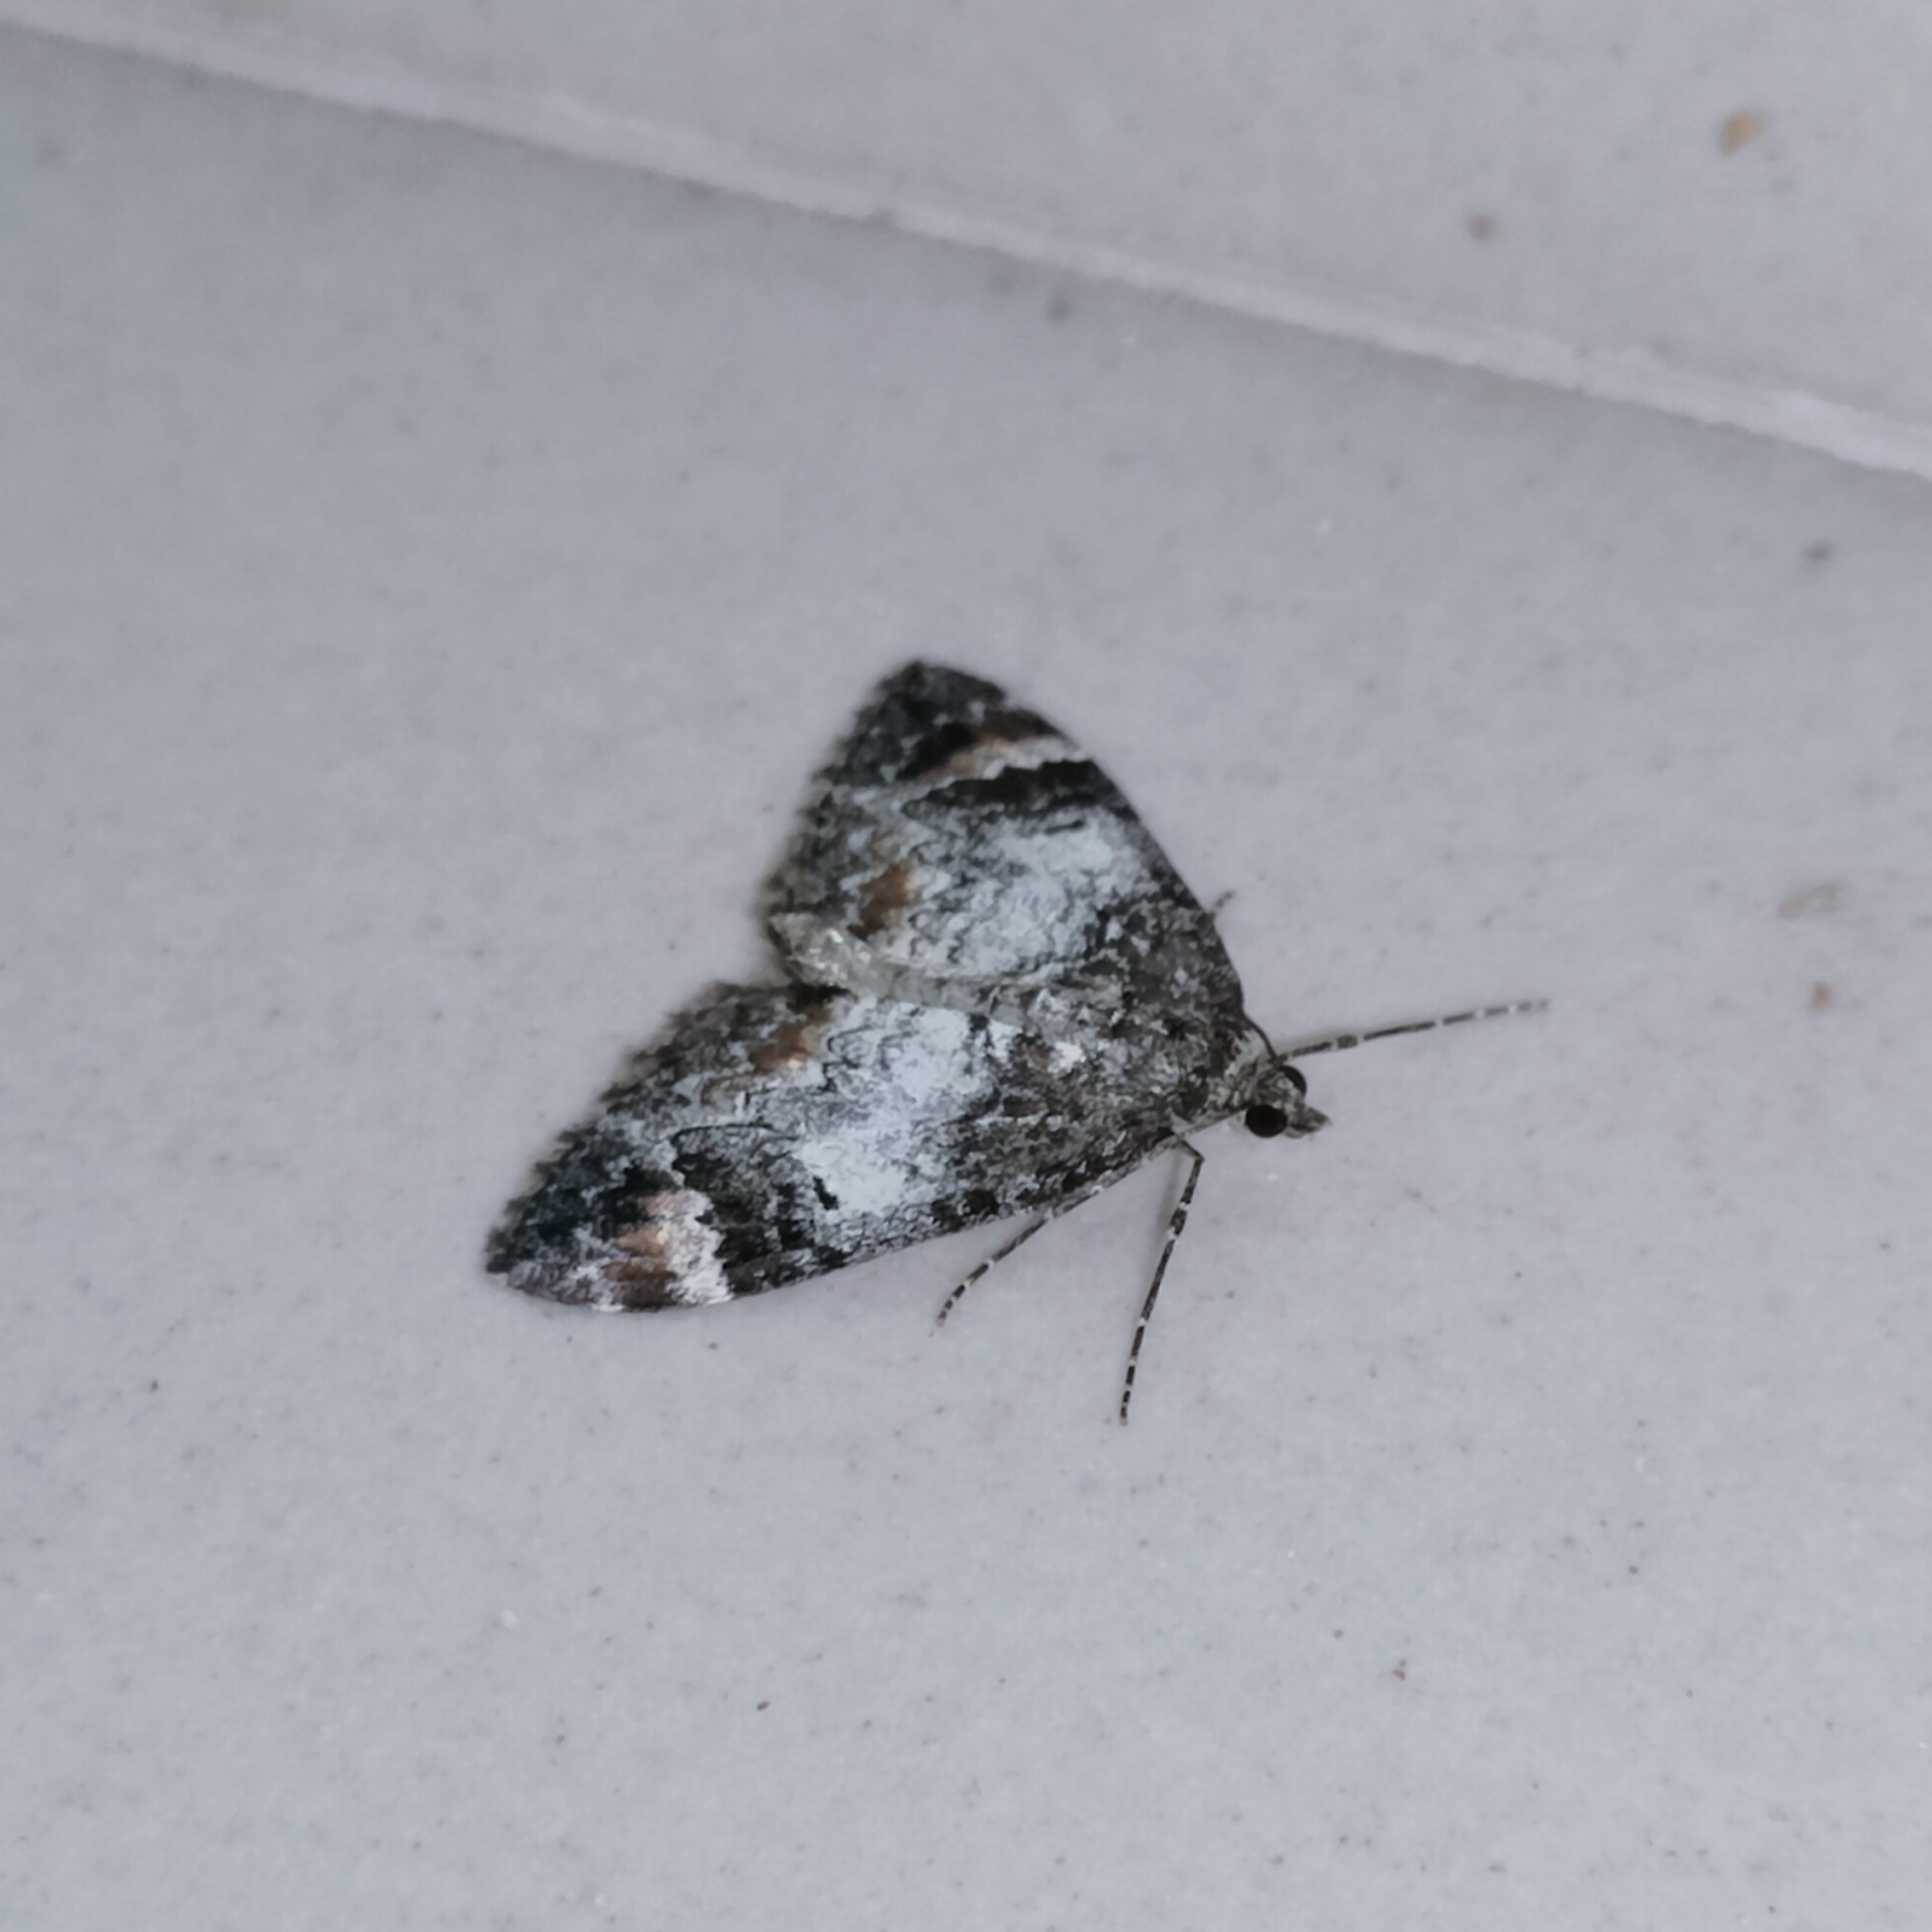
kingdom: Animalia
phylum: Arthropoda
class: Insecta
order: Lepidoptera
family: Geometridae
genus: Dysstroma
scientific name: Dysstroma truncata
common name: Common marbled carpet
